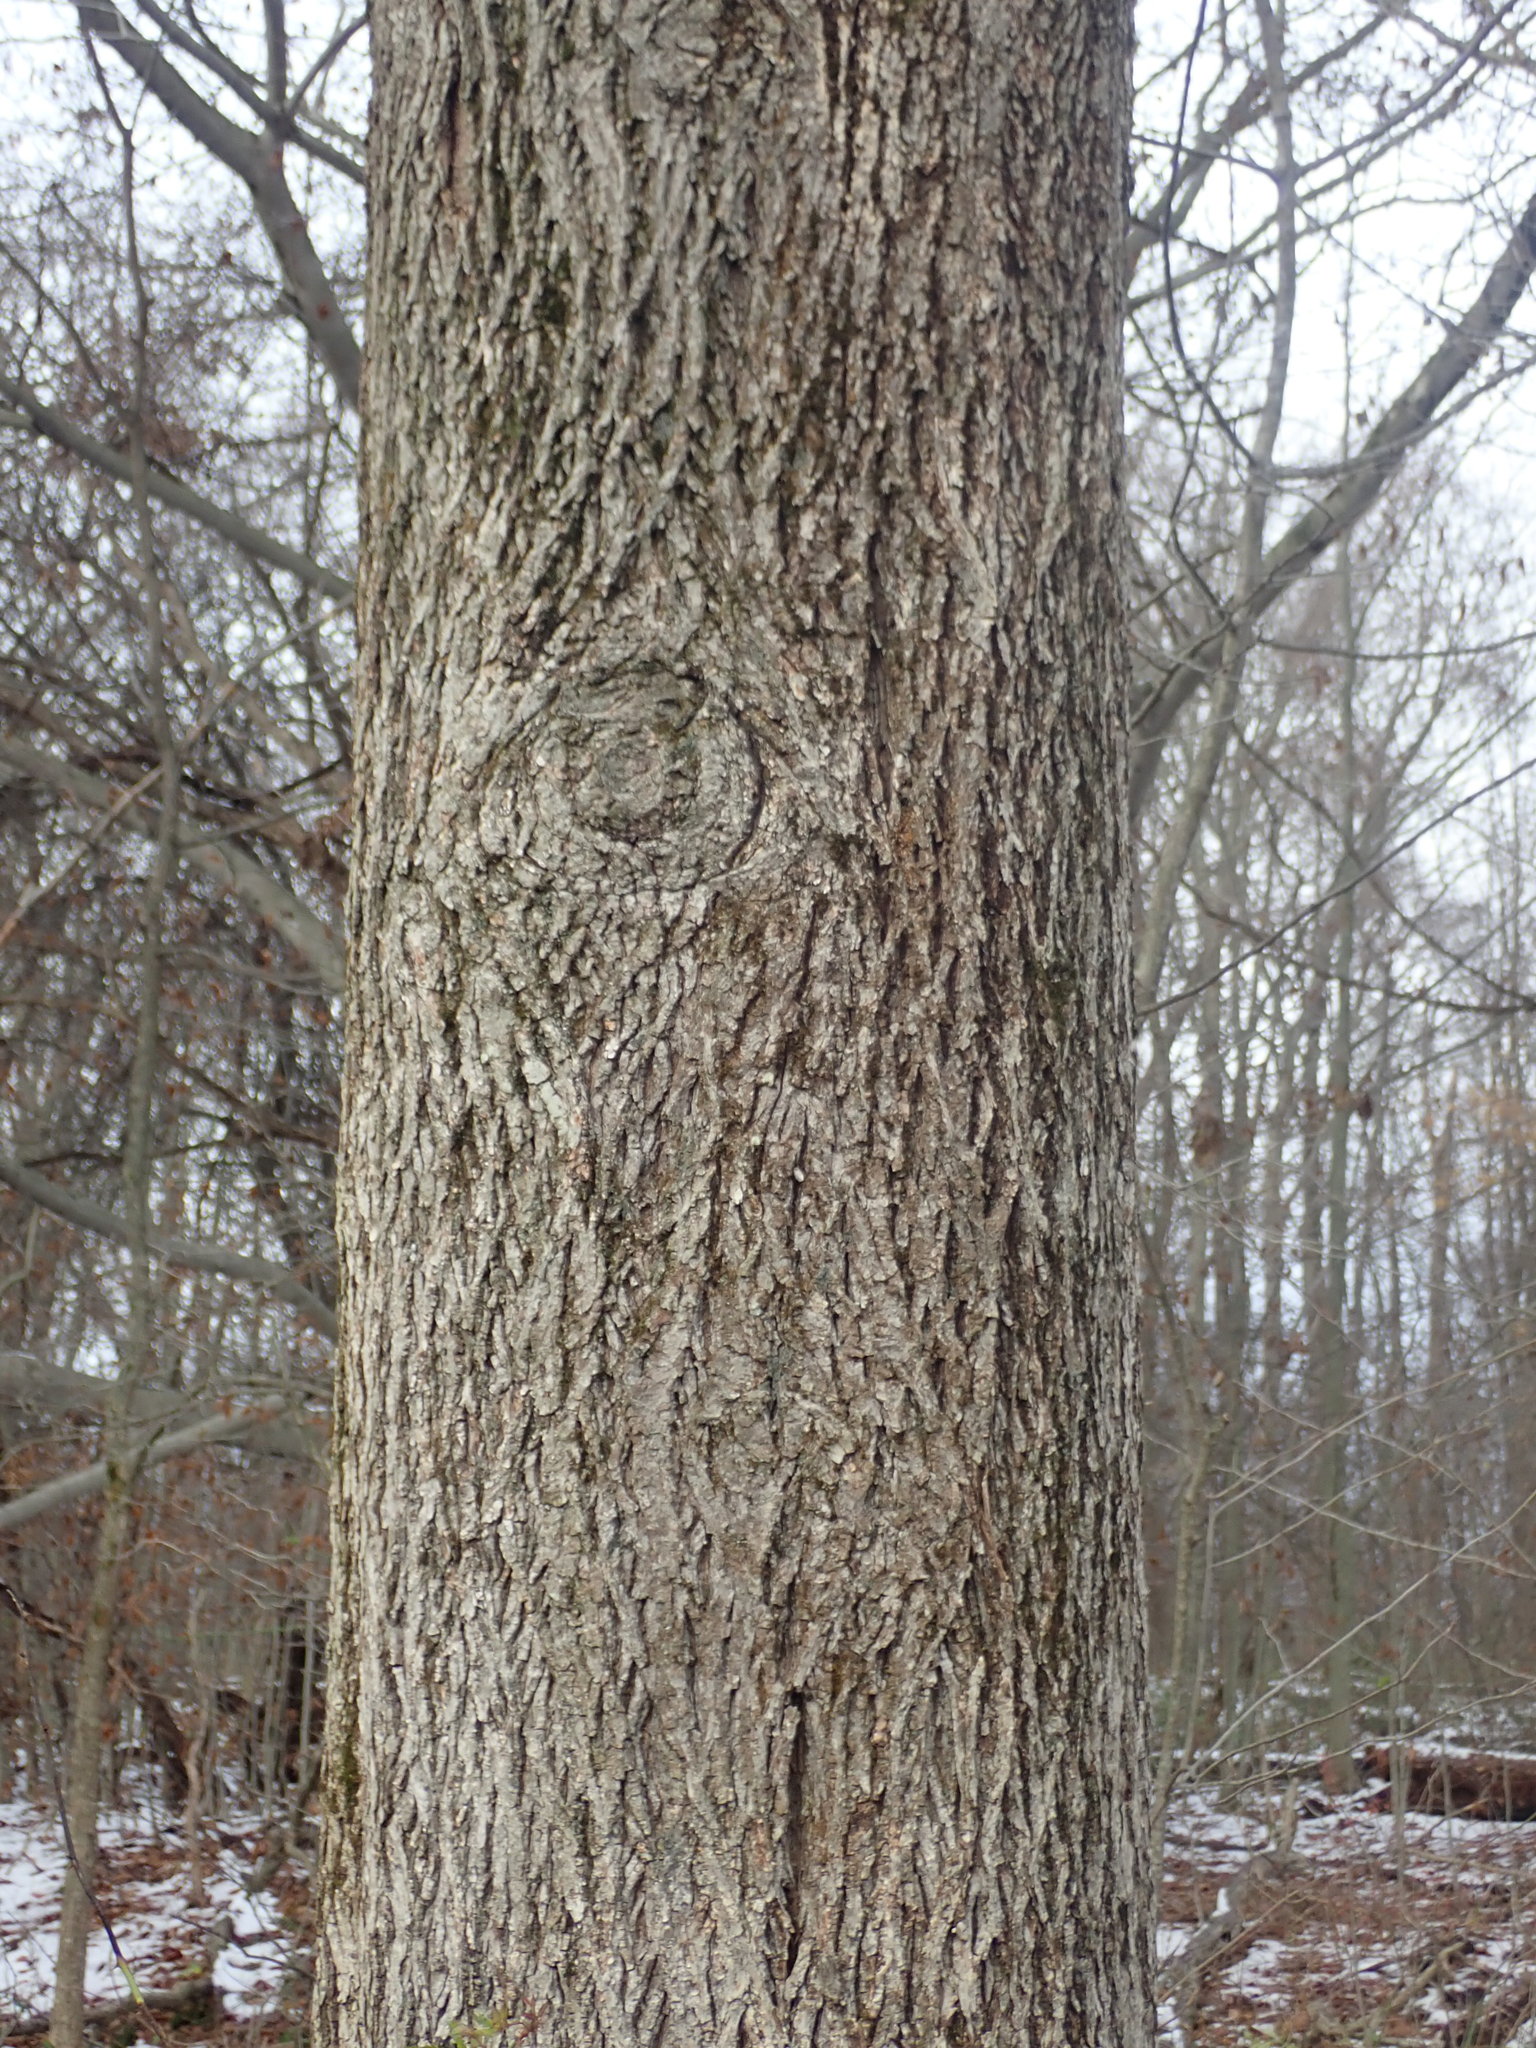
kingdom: Plantae
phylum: Tracheophyta
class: Magnoliopsida
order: Fagales
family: Juglandaceae
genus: Carya
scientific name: Carya cordiformis
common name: Bitternut hickory
